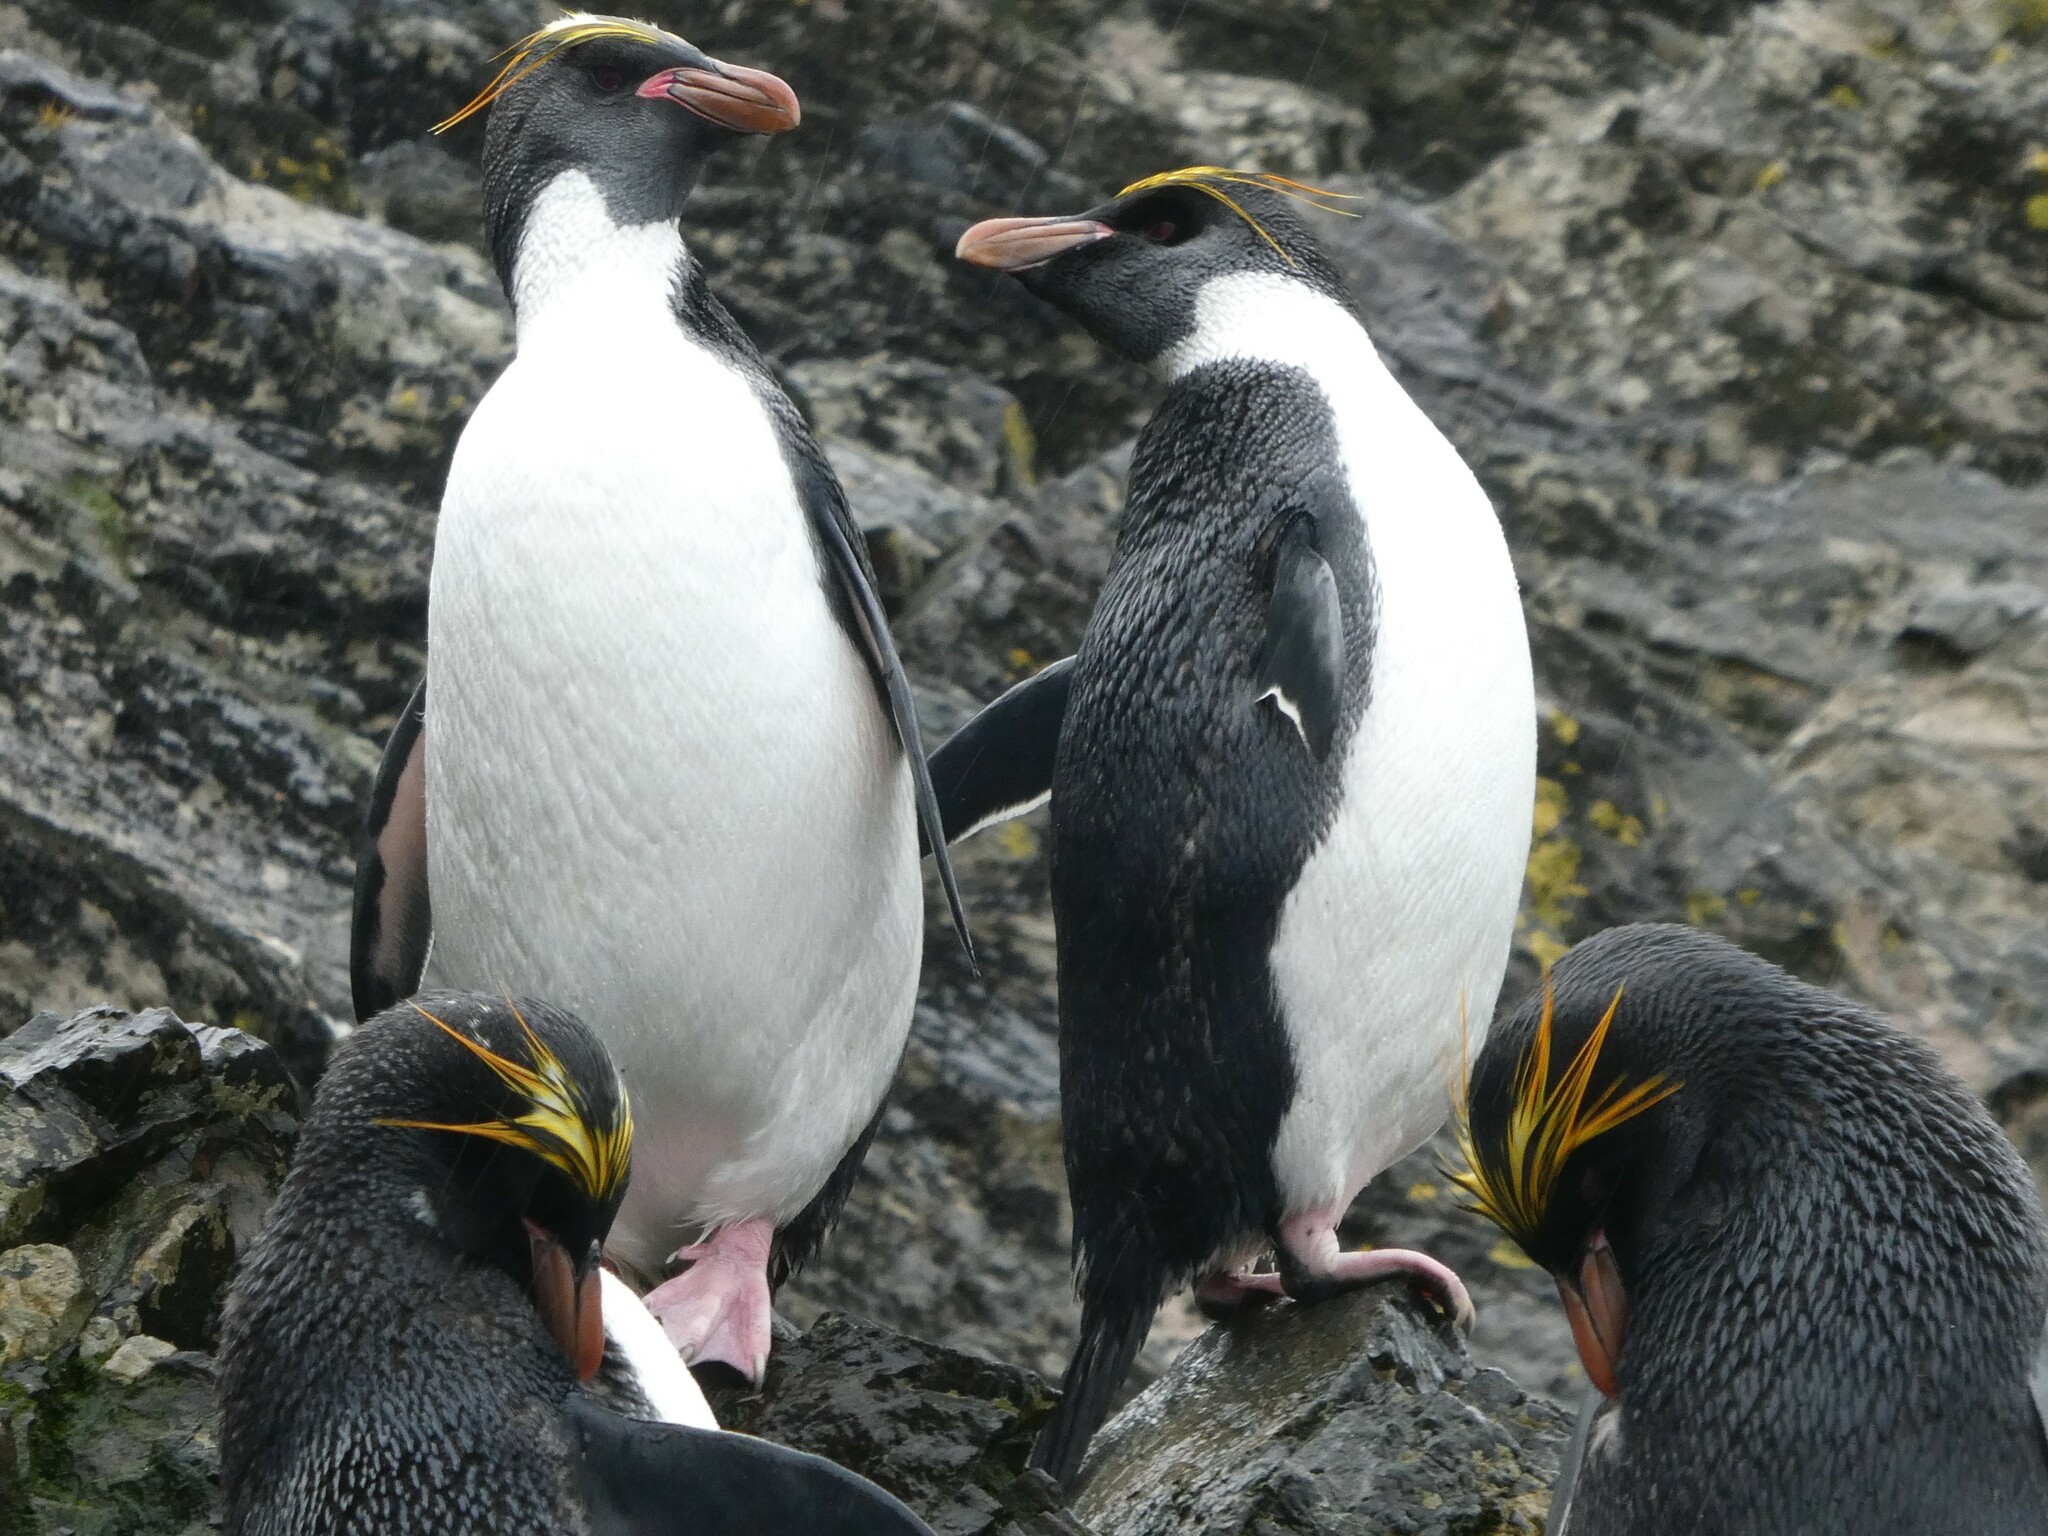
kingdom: Animalia
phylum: Chordata
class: Aves
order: Sphenisciformes
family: Spheniscidae
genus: Eudyptes
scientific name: Eudyptes chrysolophus
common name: Macaroni penguin
